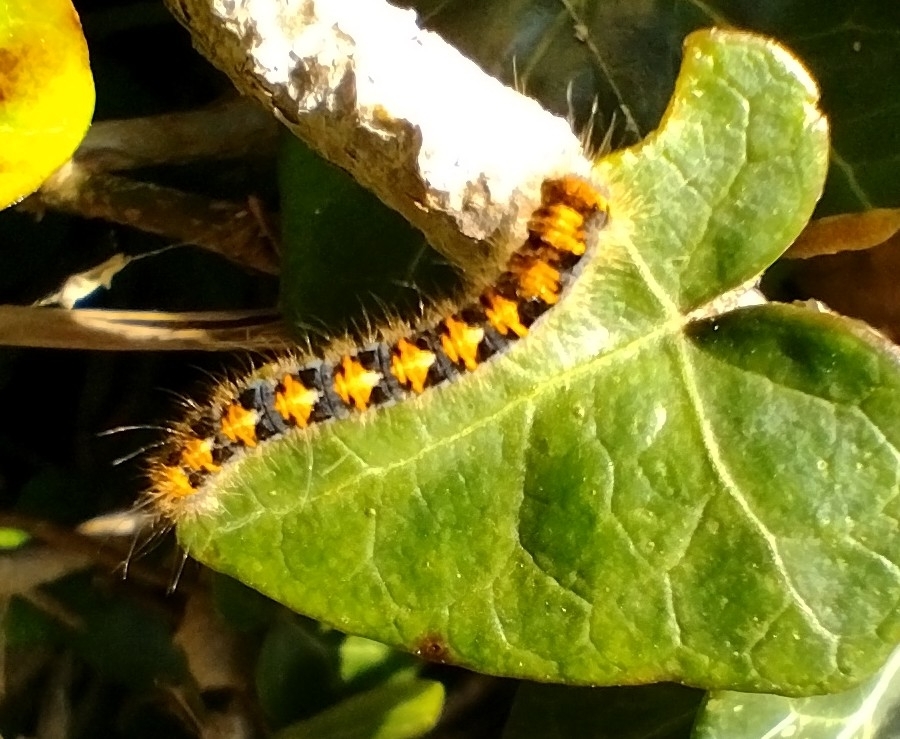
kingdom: Animalia
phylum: Arthropoda
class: Insecta
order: Lepidoptera
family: Lasiocampidae
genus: Lasiocampa
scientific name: Lasiocampa quercus
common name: Oak eggar
